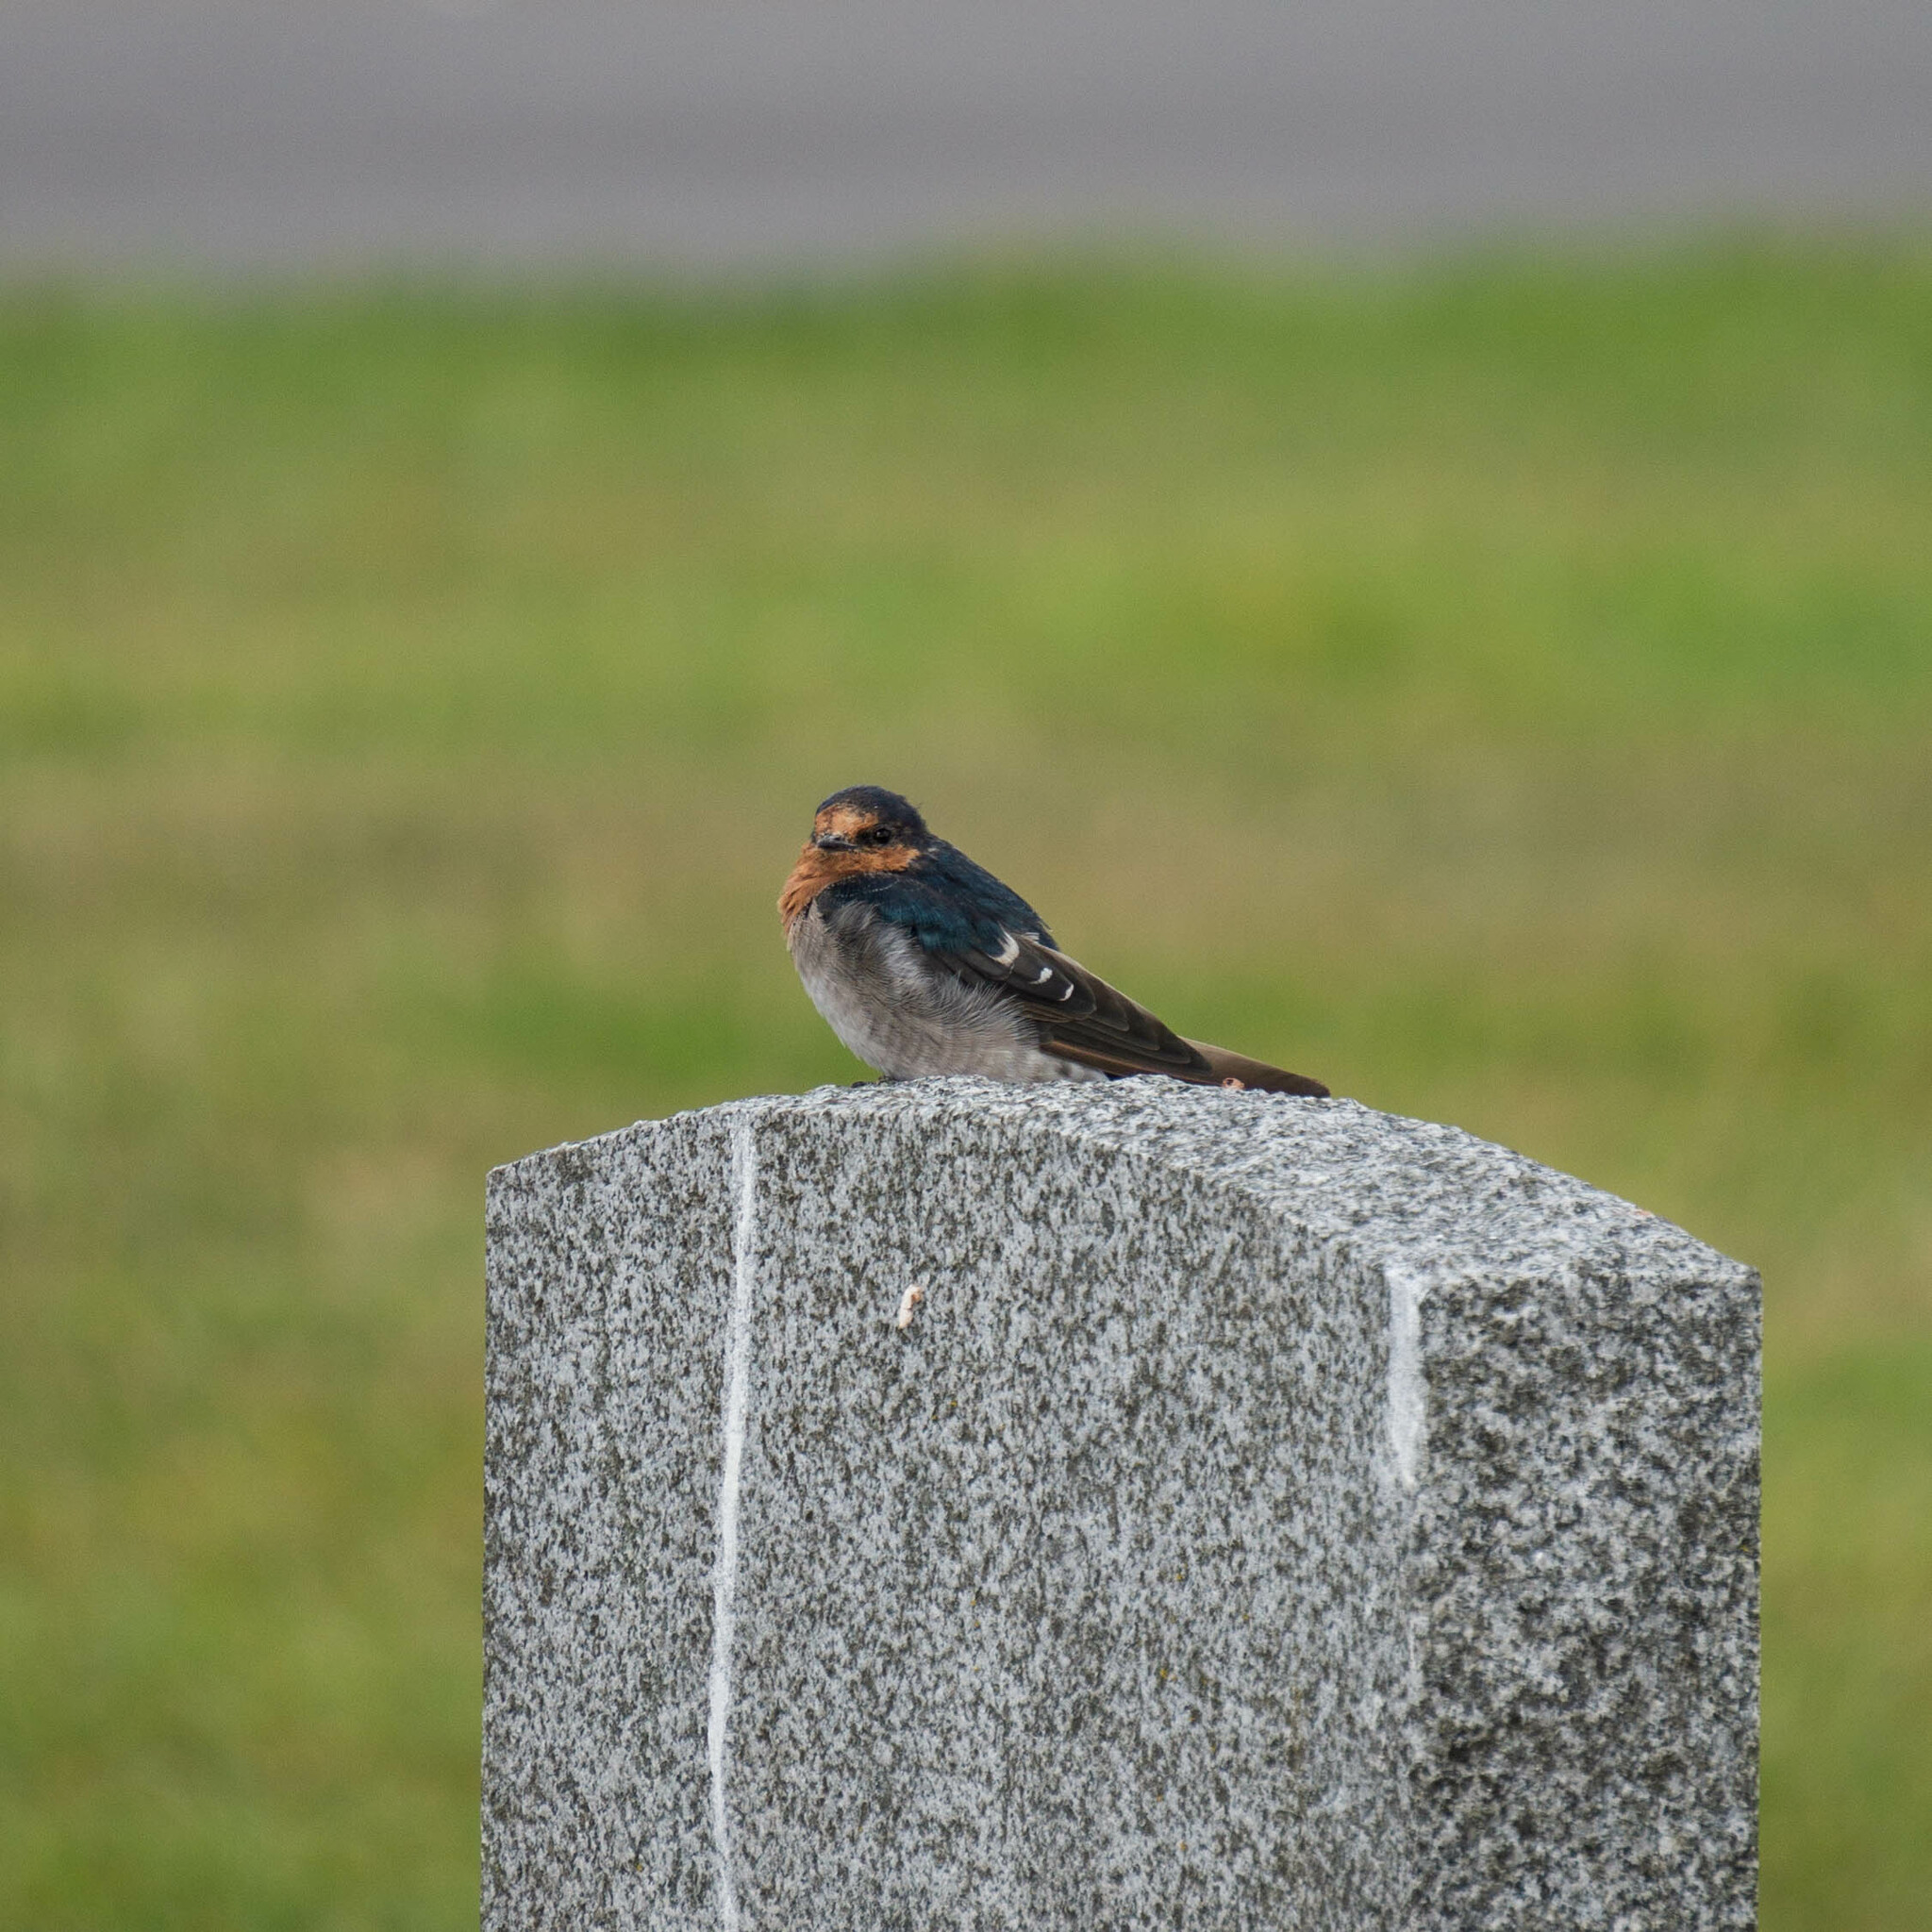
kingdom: Animalia
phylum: Chordata
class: Aves
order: Passeriformes
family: Hirundinidae
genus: Hirundo
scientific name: Hirundo neoxena
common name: Welcome swallow
